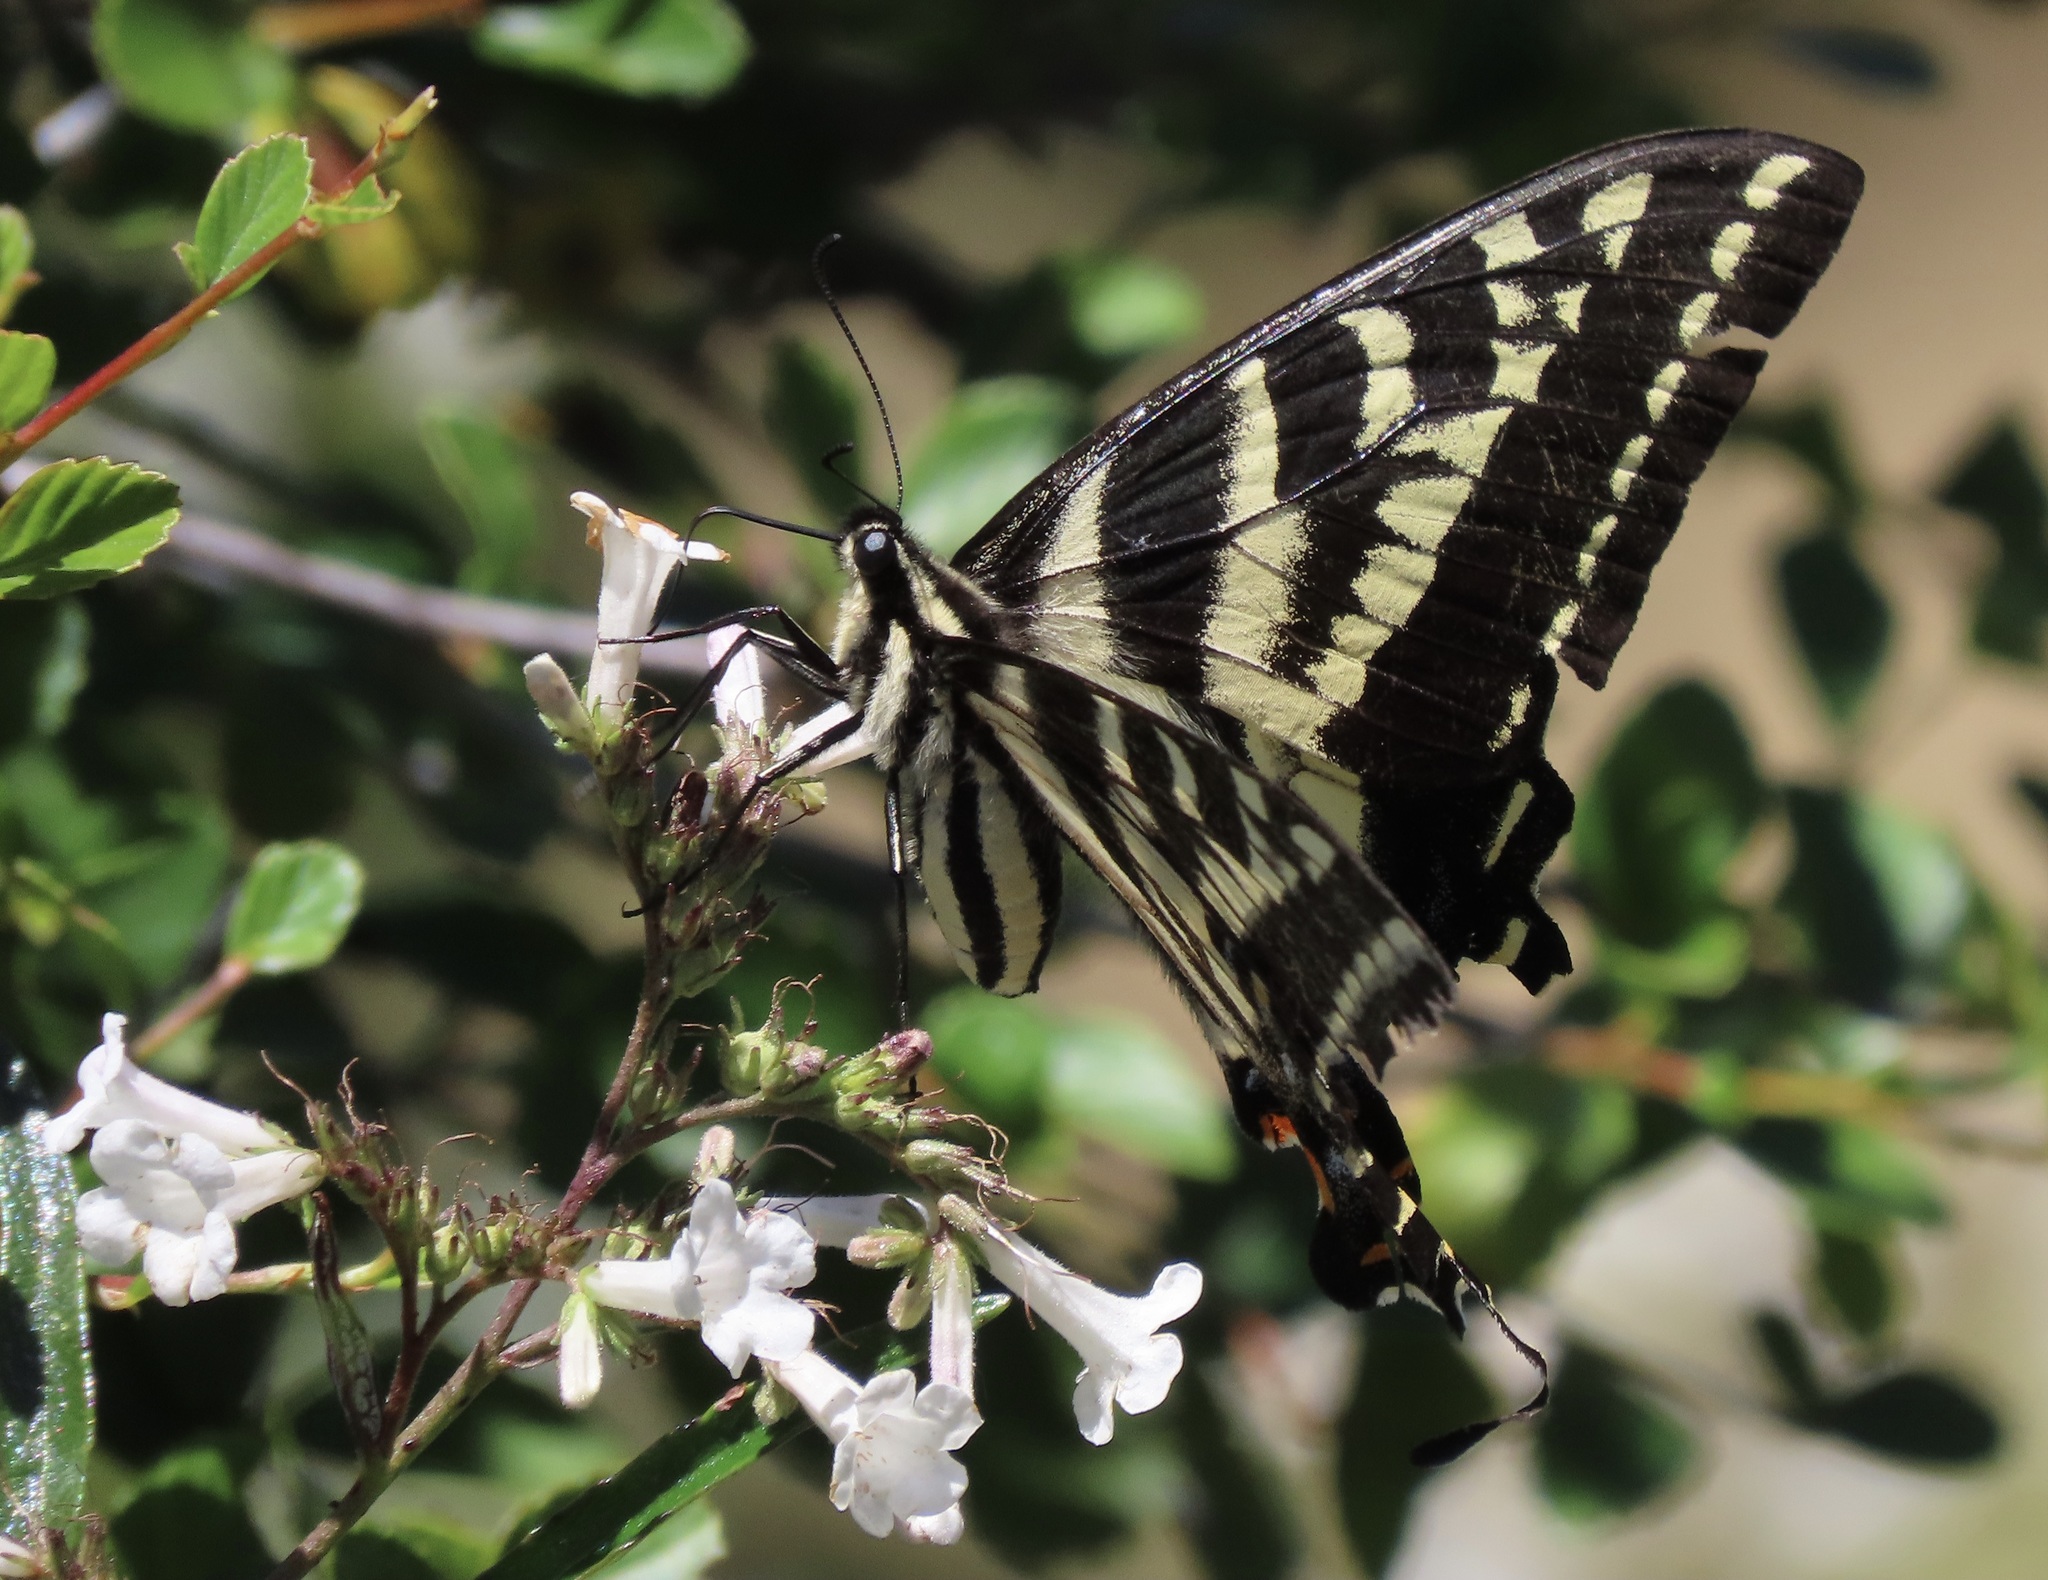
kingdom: Animalia
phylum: Arthropoda
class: Insecta
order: Lepidoptera
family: Papilionidae
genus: Papilio
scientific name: Papilio eurymedon
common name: Pale tiger swallowtail
